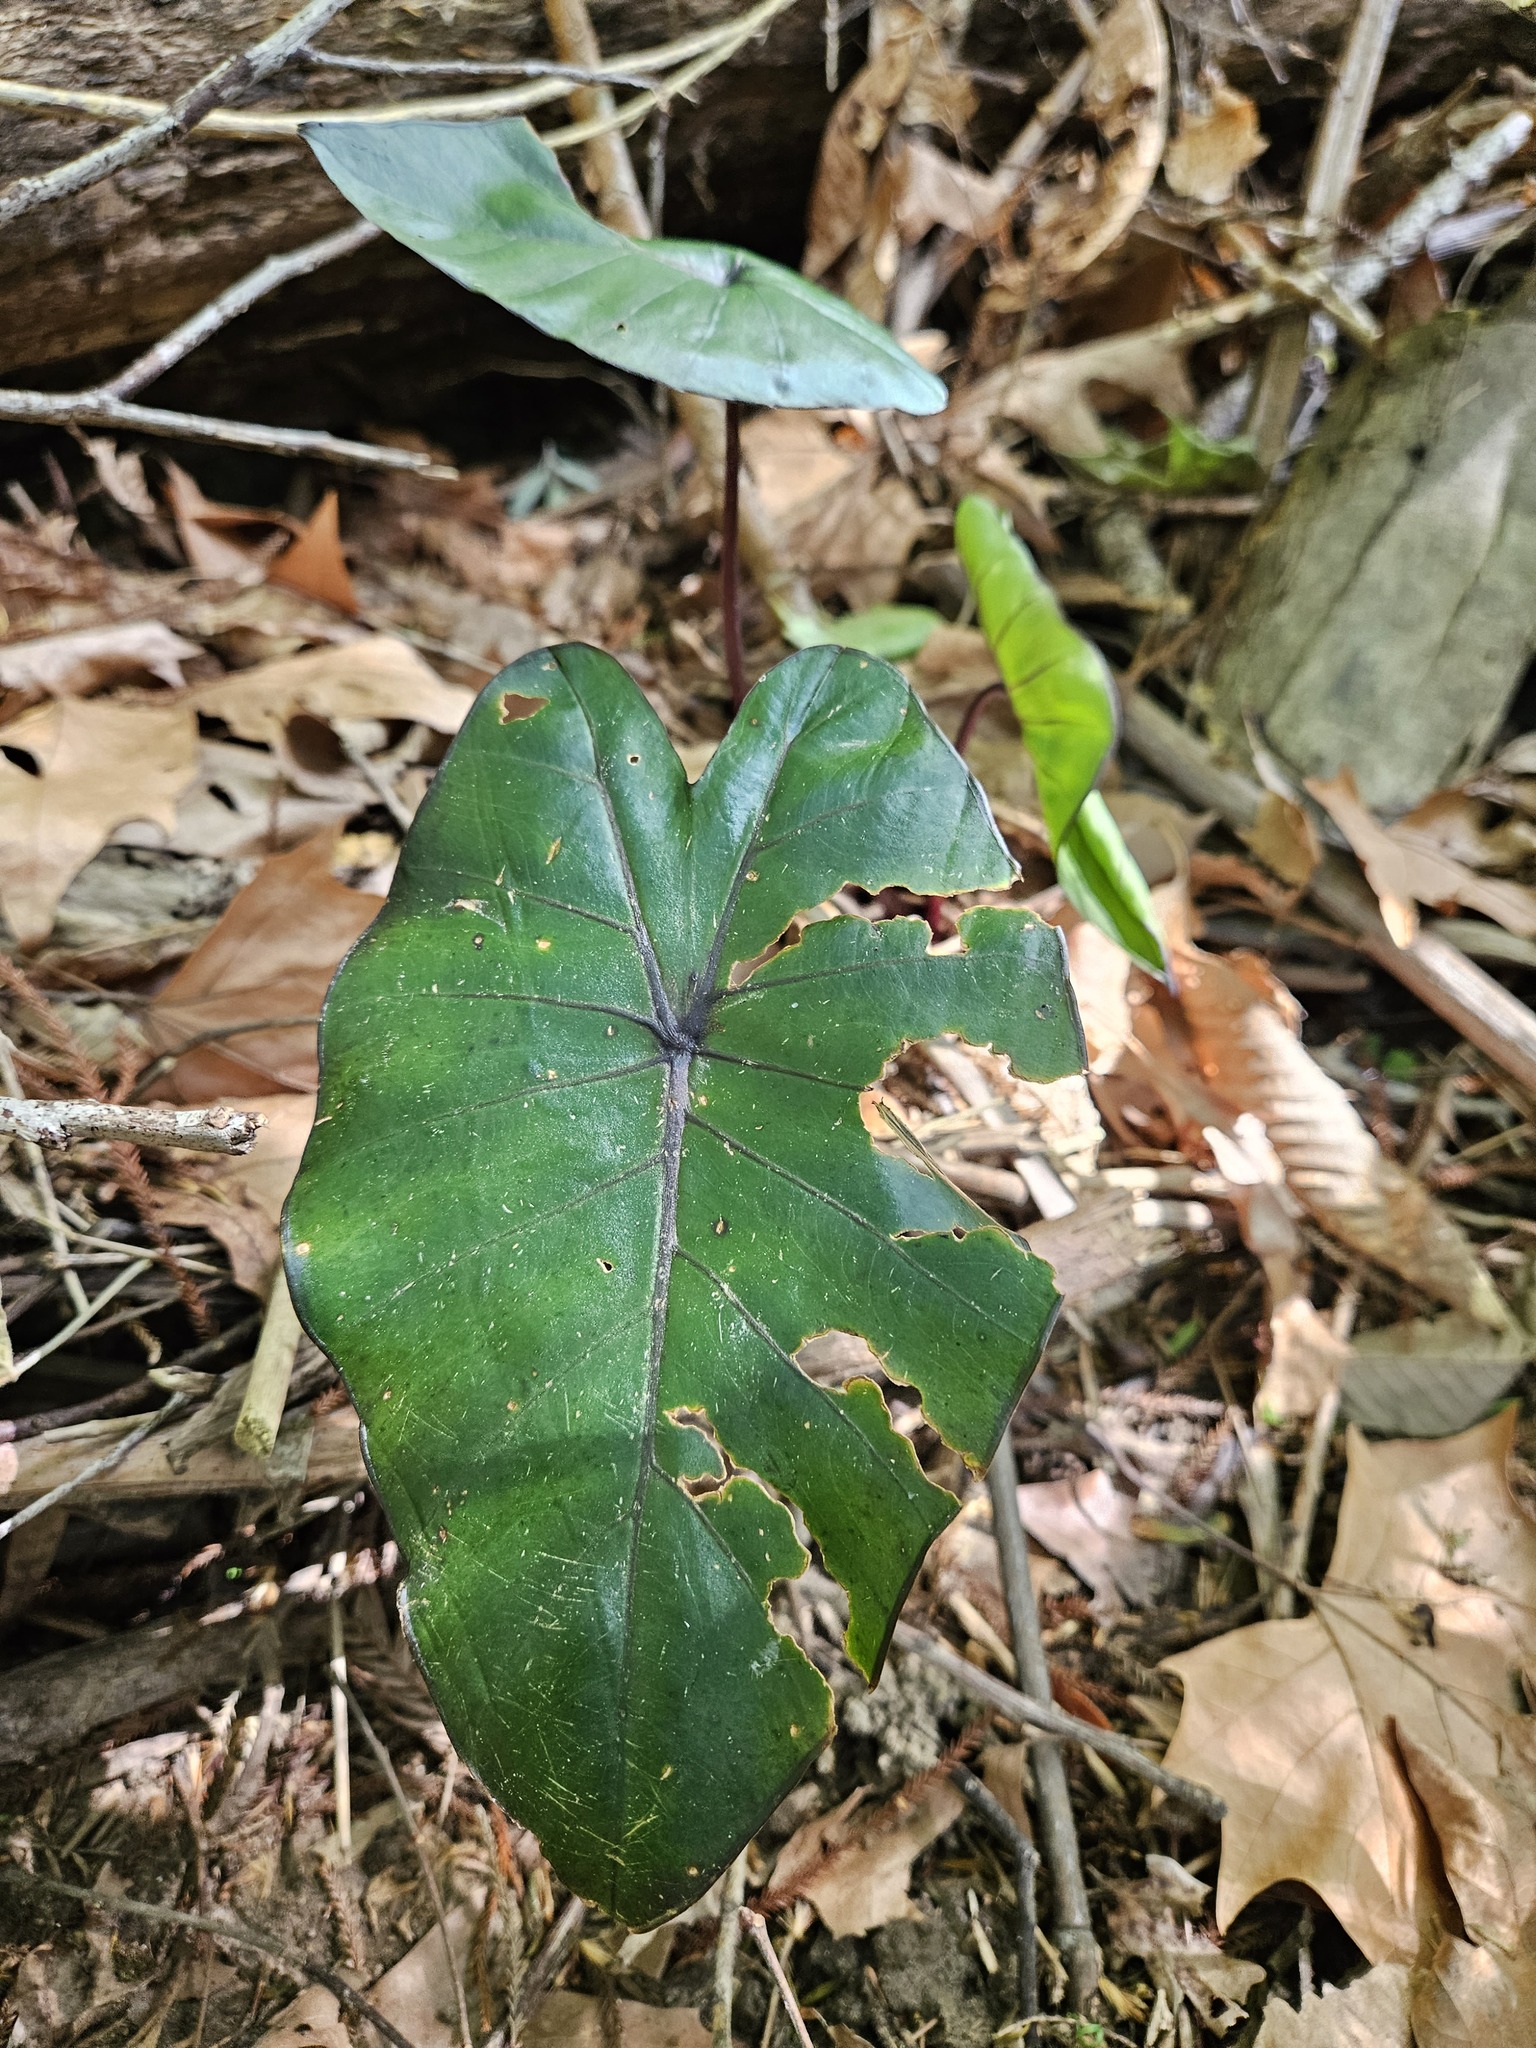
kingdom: Plantae
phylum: Tracheophyta
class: Liliopsida
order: Alismatales
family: Araceae
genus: Colocasia
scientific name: Colocasia esculenta
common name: Taro
